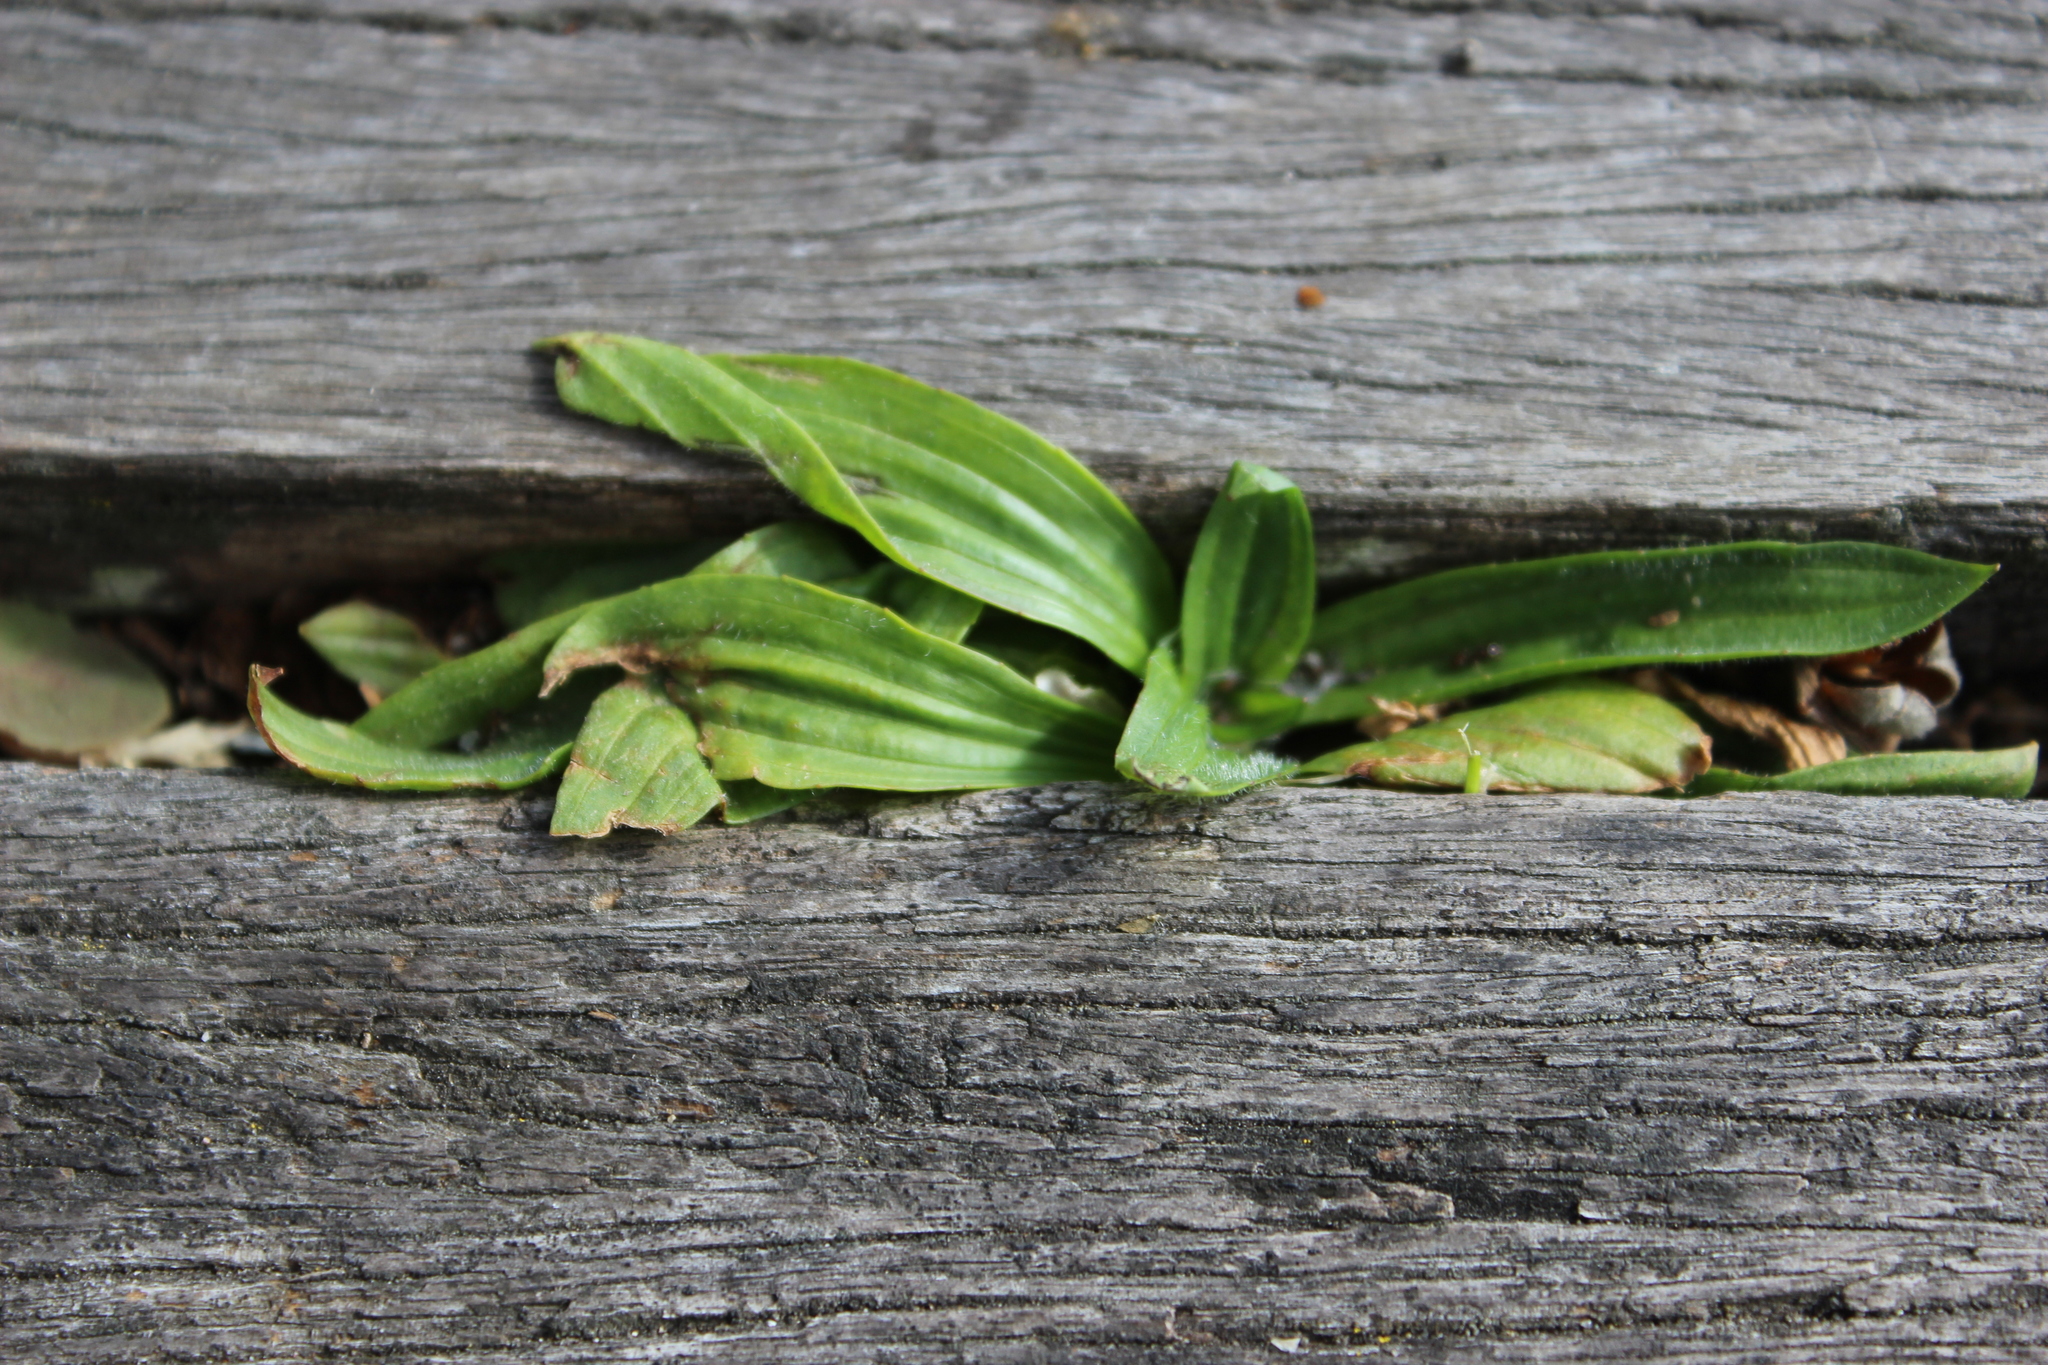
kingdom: Plantae
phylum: Tracheophyta
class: Magnoliopsida
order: Lamiales
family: Plantaginaceae
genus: Plantago
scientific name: Plantago lanceolata
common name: Ribwort plantain
